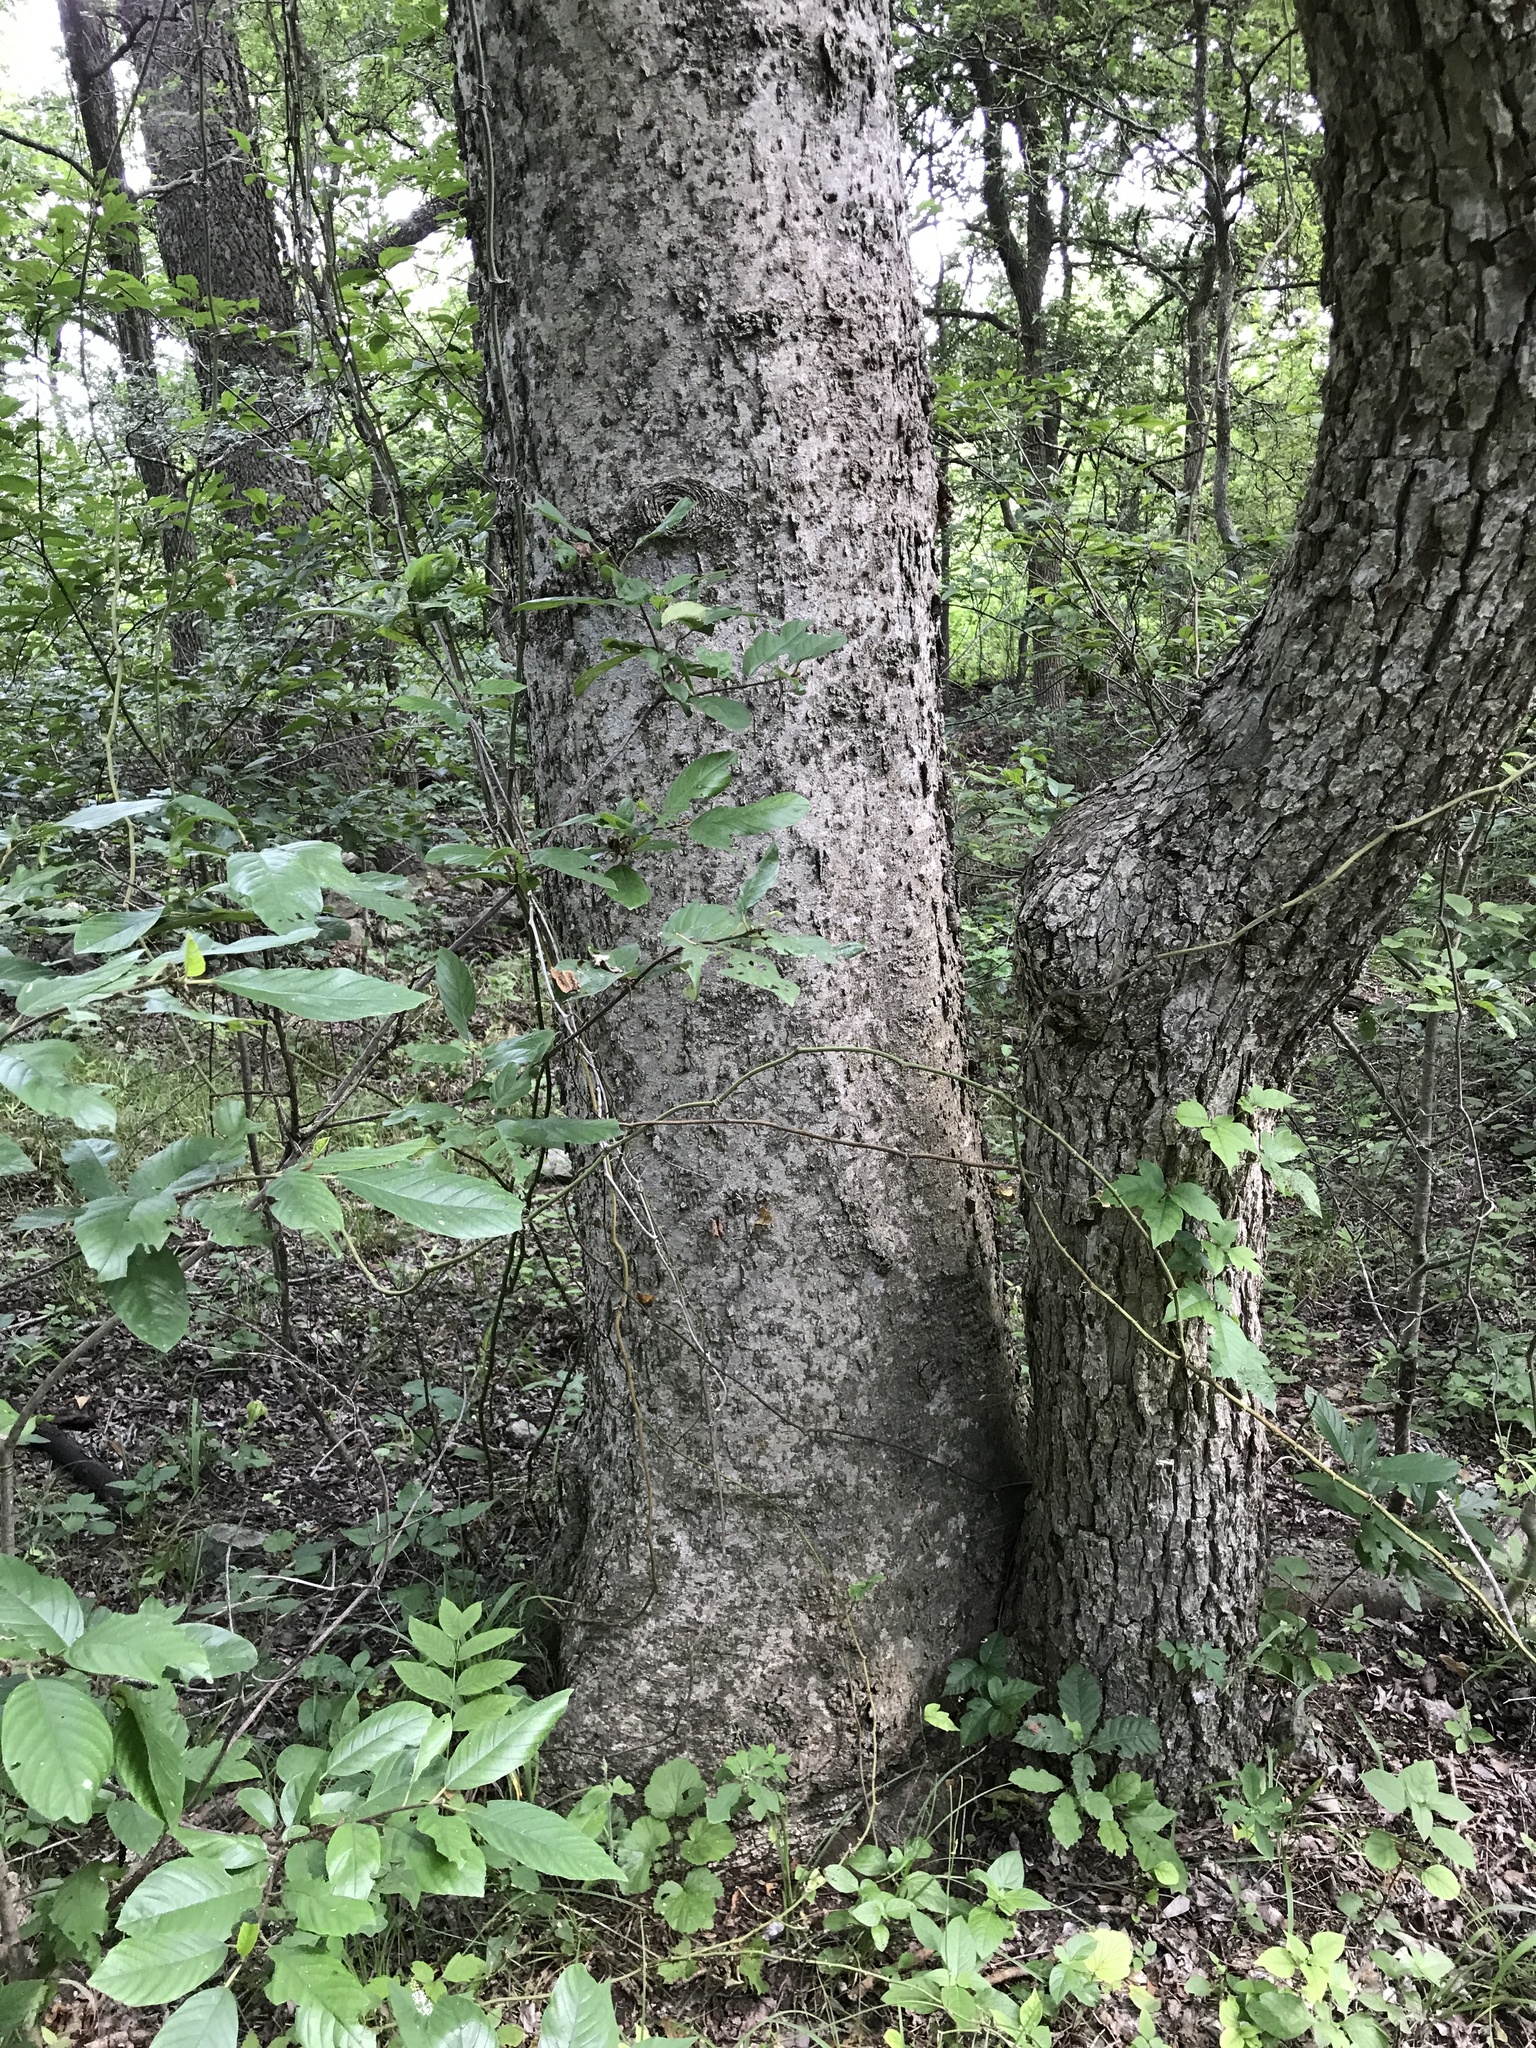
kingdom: Plantae
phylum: Tracheophyta
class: Magnoliopsida
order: Rosales
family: Cannabaceae
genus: Celtis
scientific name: Celtis laevigata
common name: Sugarberry
